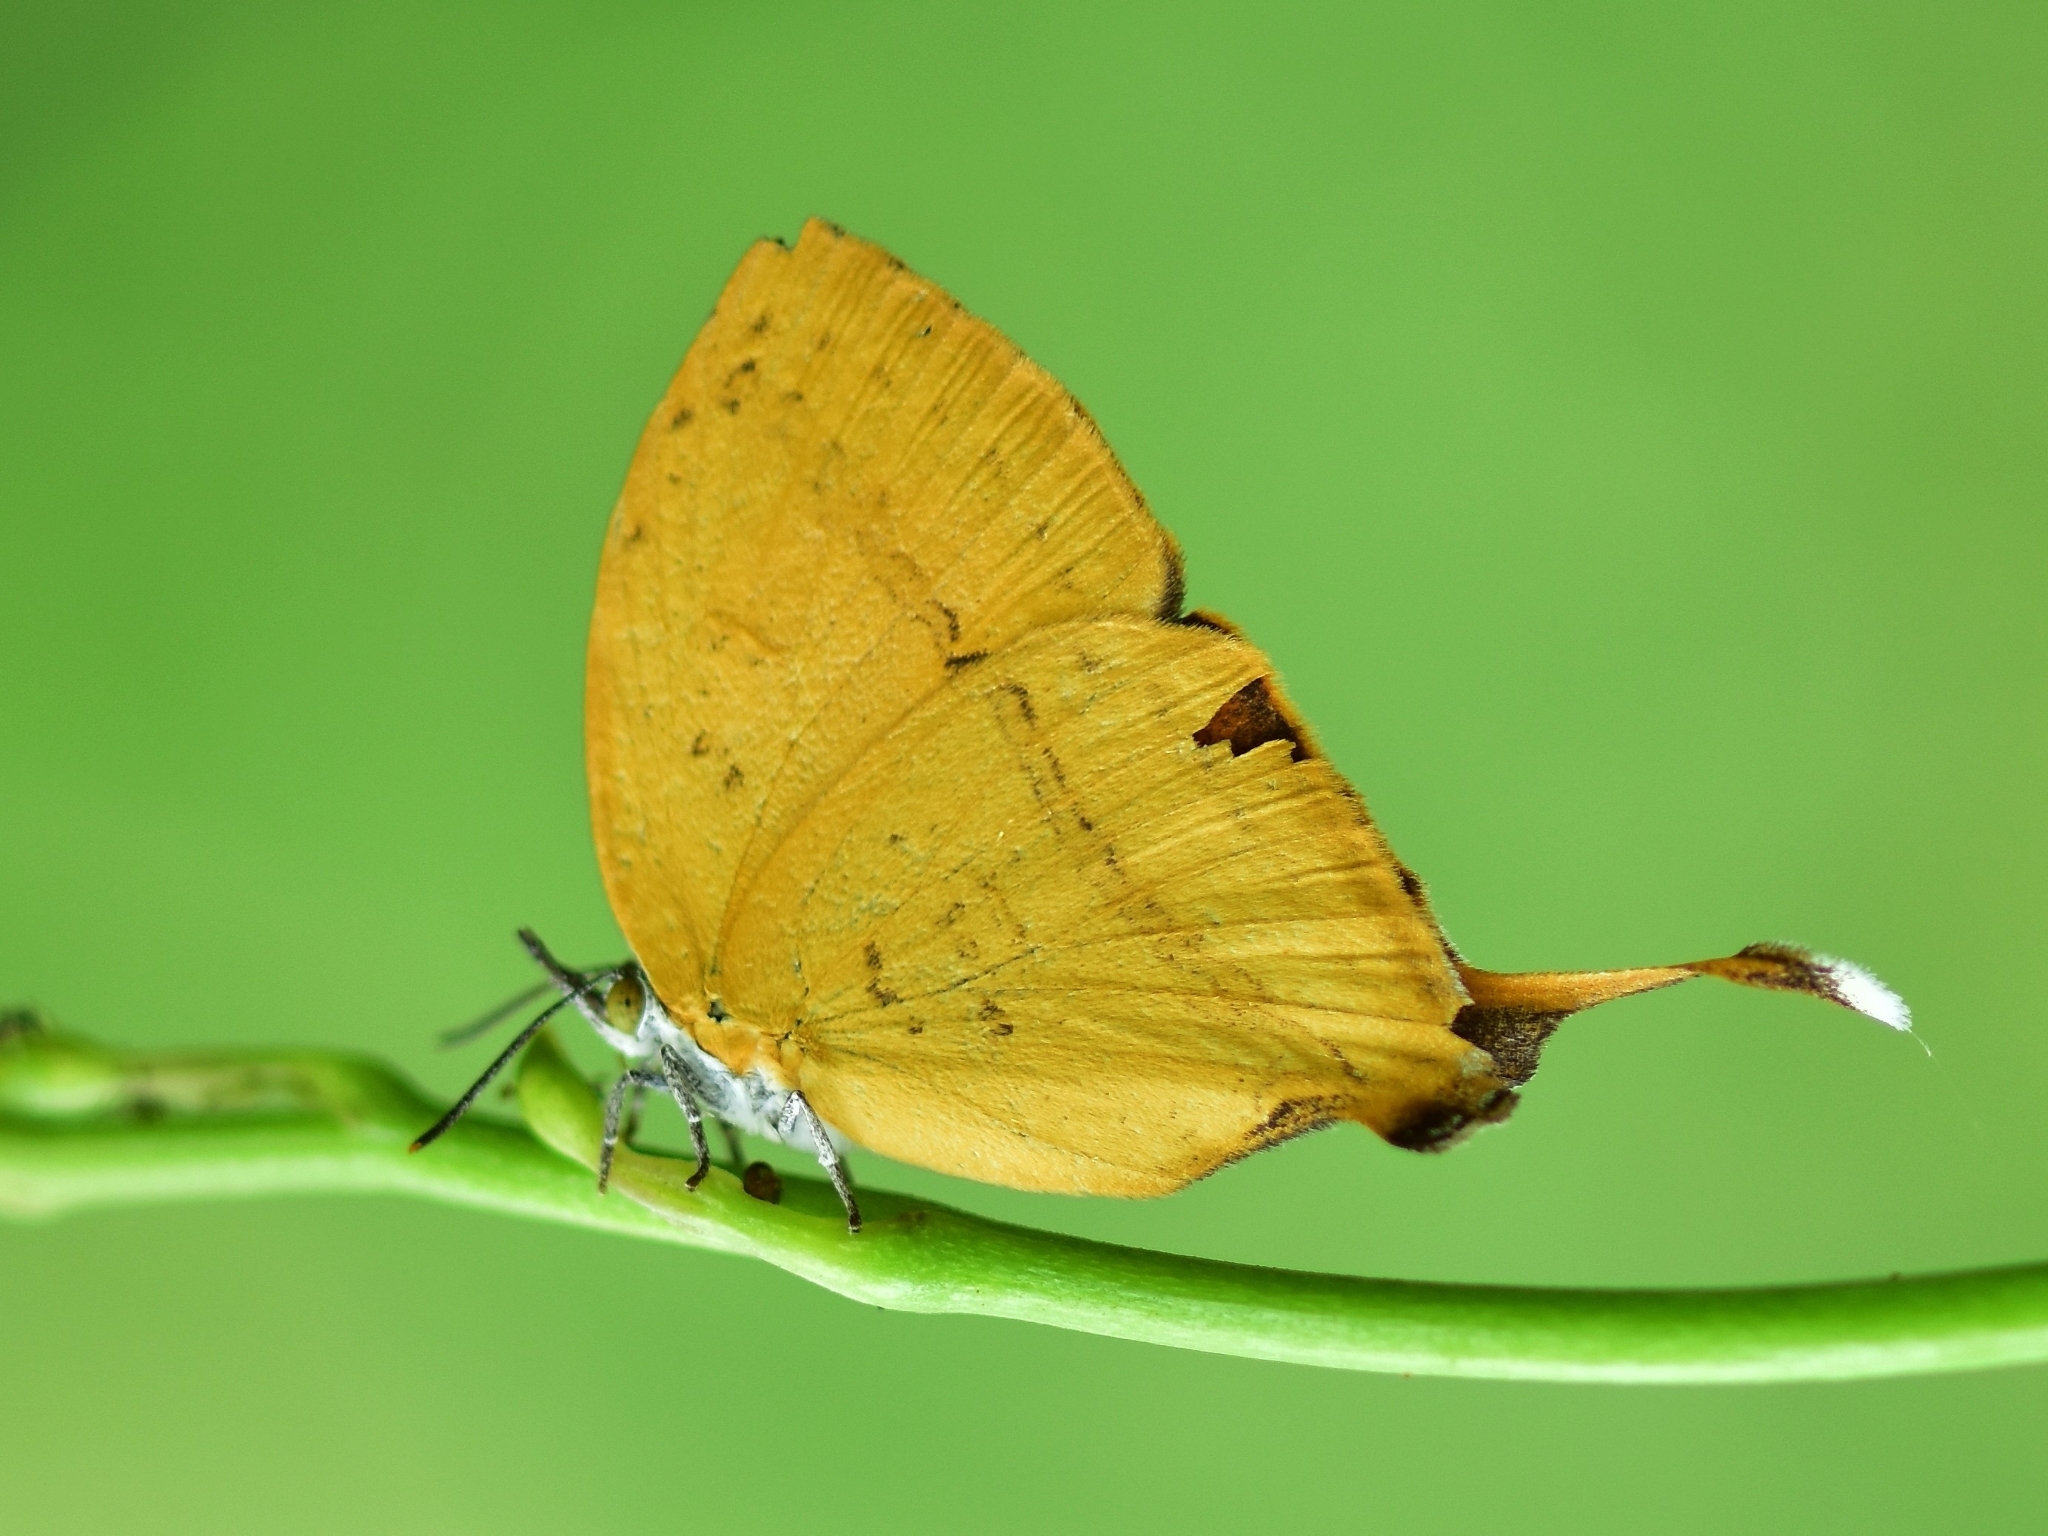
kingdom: Animalia
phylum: Arthropoda
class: Insecta
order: Lepidoptera
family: Lycaenidae
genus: Loxura
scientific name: Loxura atymnus
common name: Common yamfly
